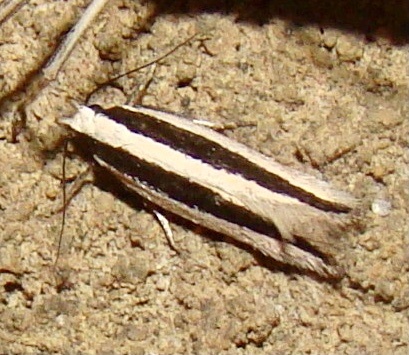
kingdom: Animalia
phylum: Arthropoda
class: Insecta
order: Lepidoptera
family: Crambidae
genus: Angustalius
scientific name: Angustalius malacellus
